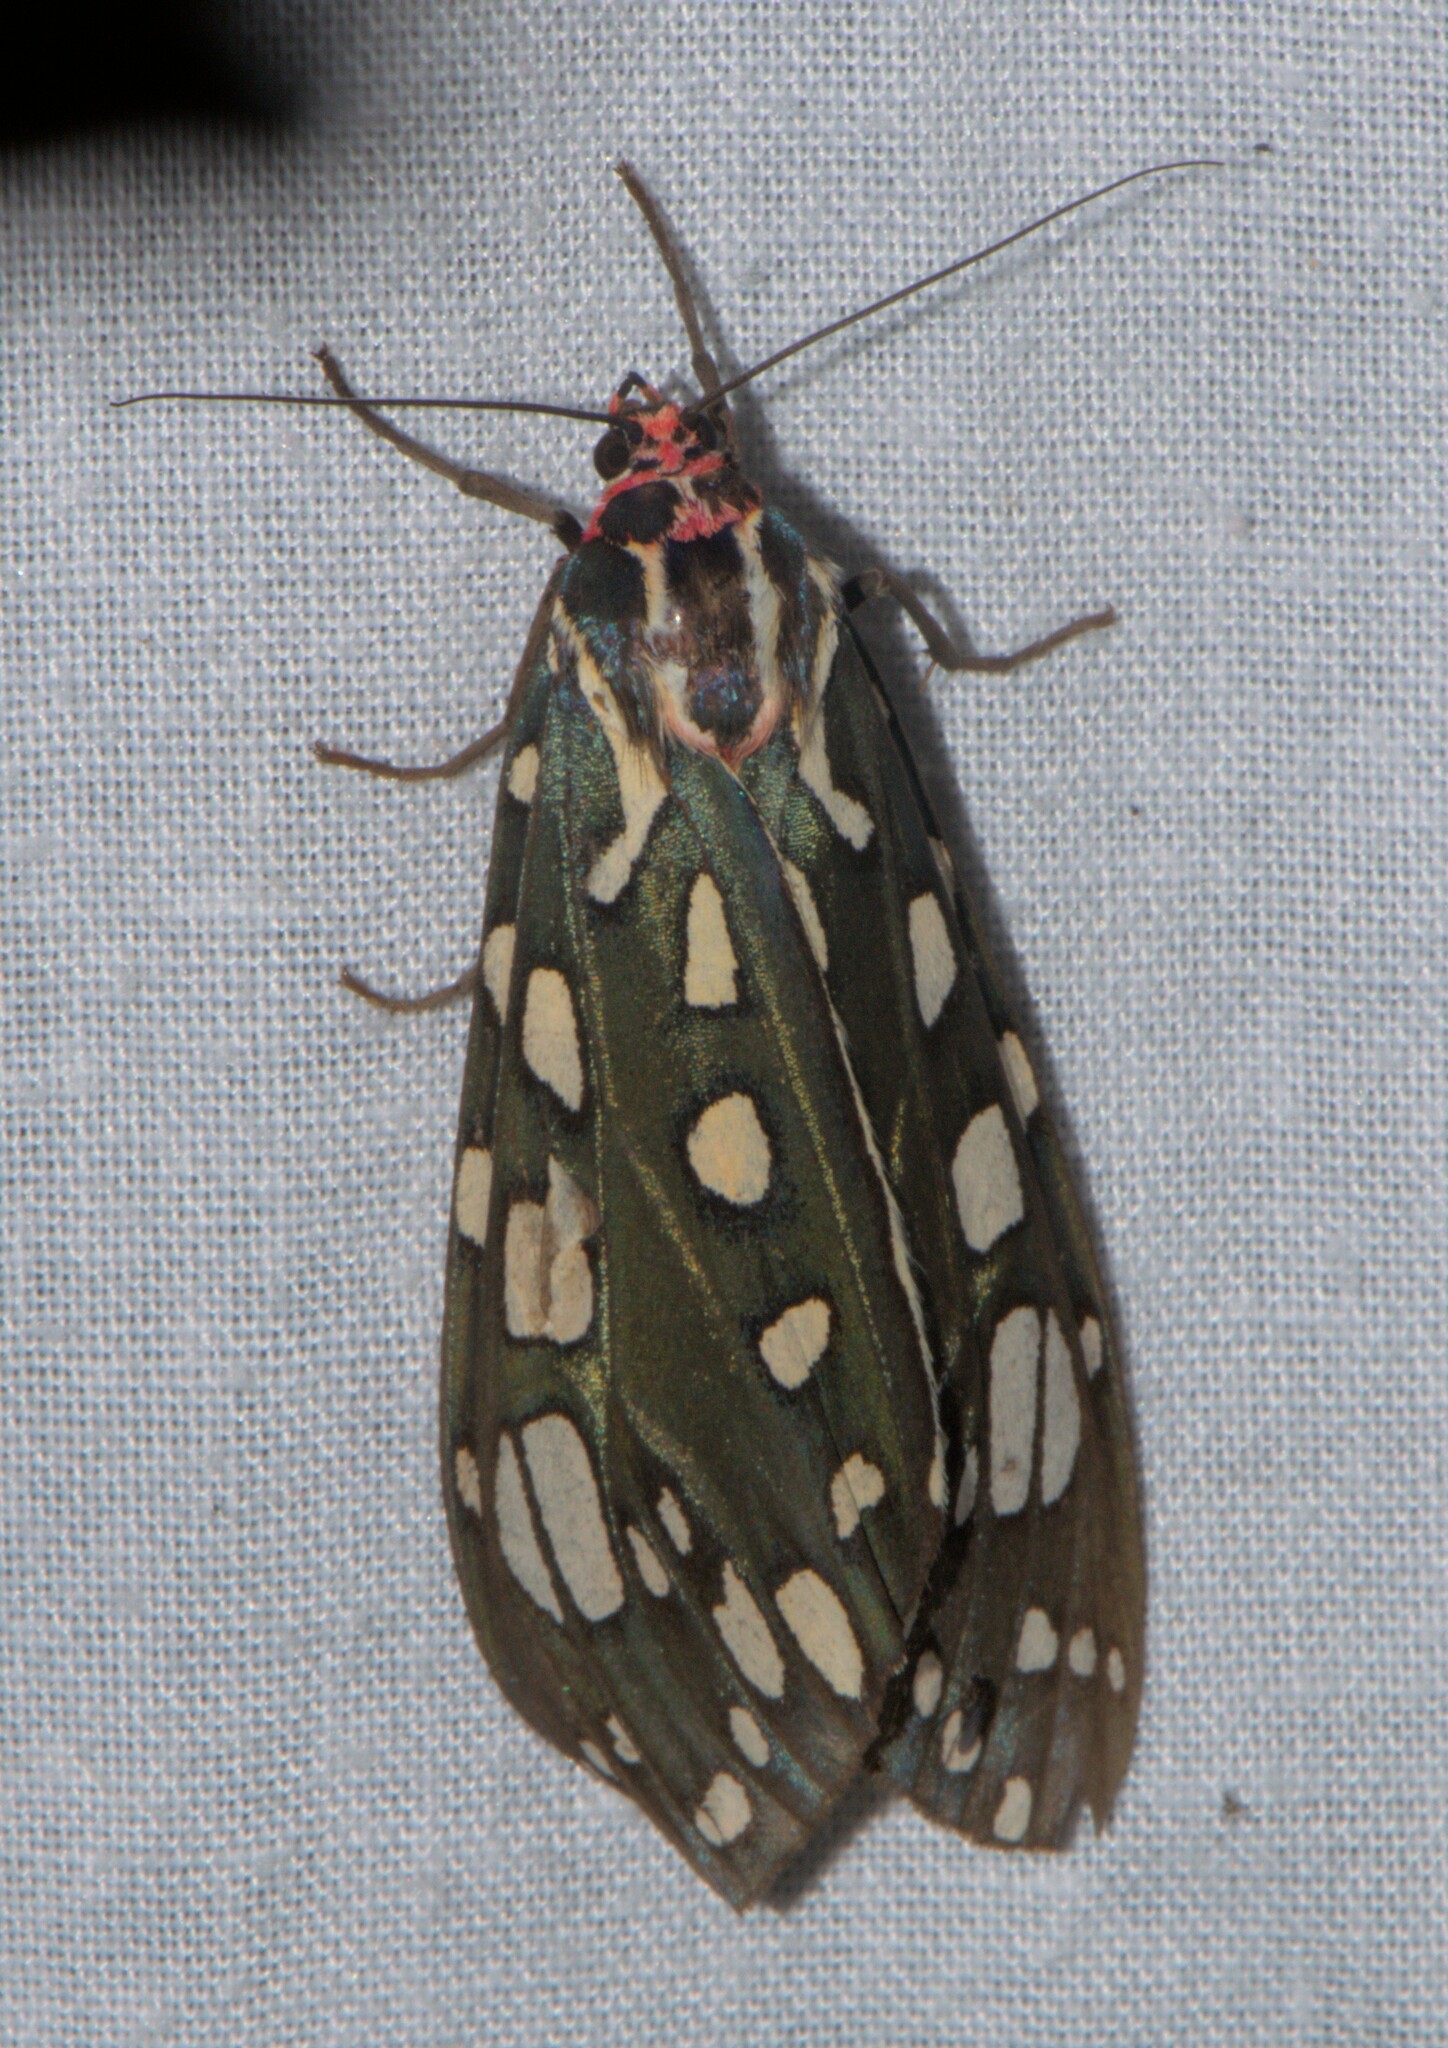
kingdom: Animalia
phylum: Arthropoda
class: Insecta
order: Lepidoptera
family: Erebidae
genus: Callindra
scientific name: Callindra principalis
